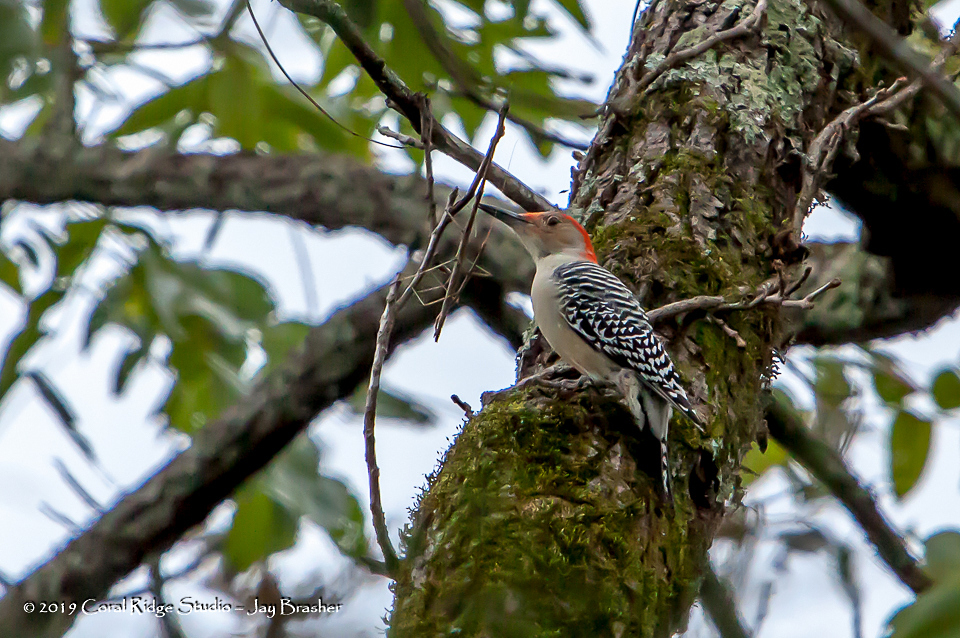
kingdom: Animalia
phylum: Chordata
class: Aves
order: Piciformes
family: Picidae
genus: Melanerpes
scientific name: Melanerpes carolinus
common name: Red-bellied woodpecker
